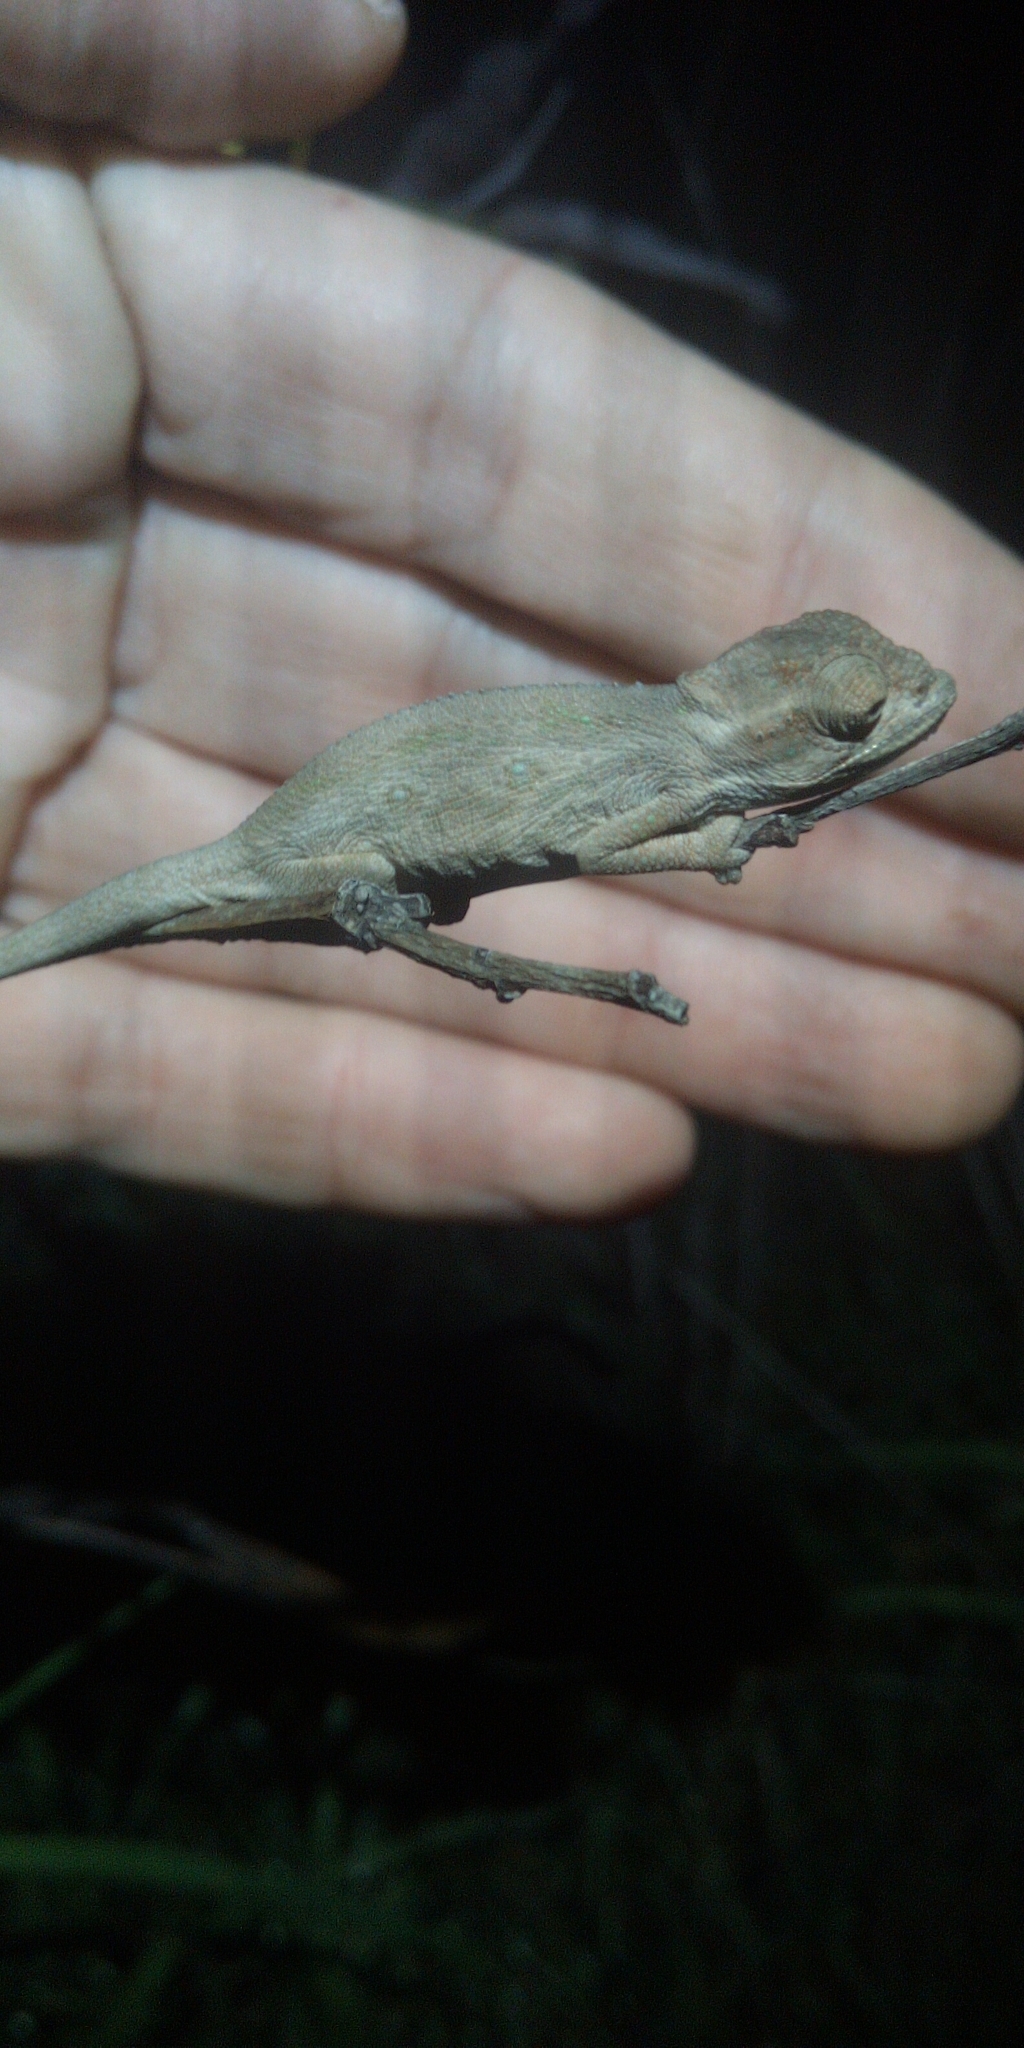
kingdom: Animalia
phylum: Chordata
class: Squamata
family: Chamaeleonidae
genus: Bradypodion
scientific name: Bradypodion pumilum
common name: Cape dwarf chameleon
